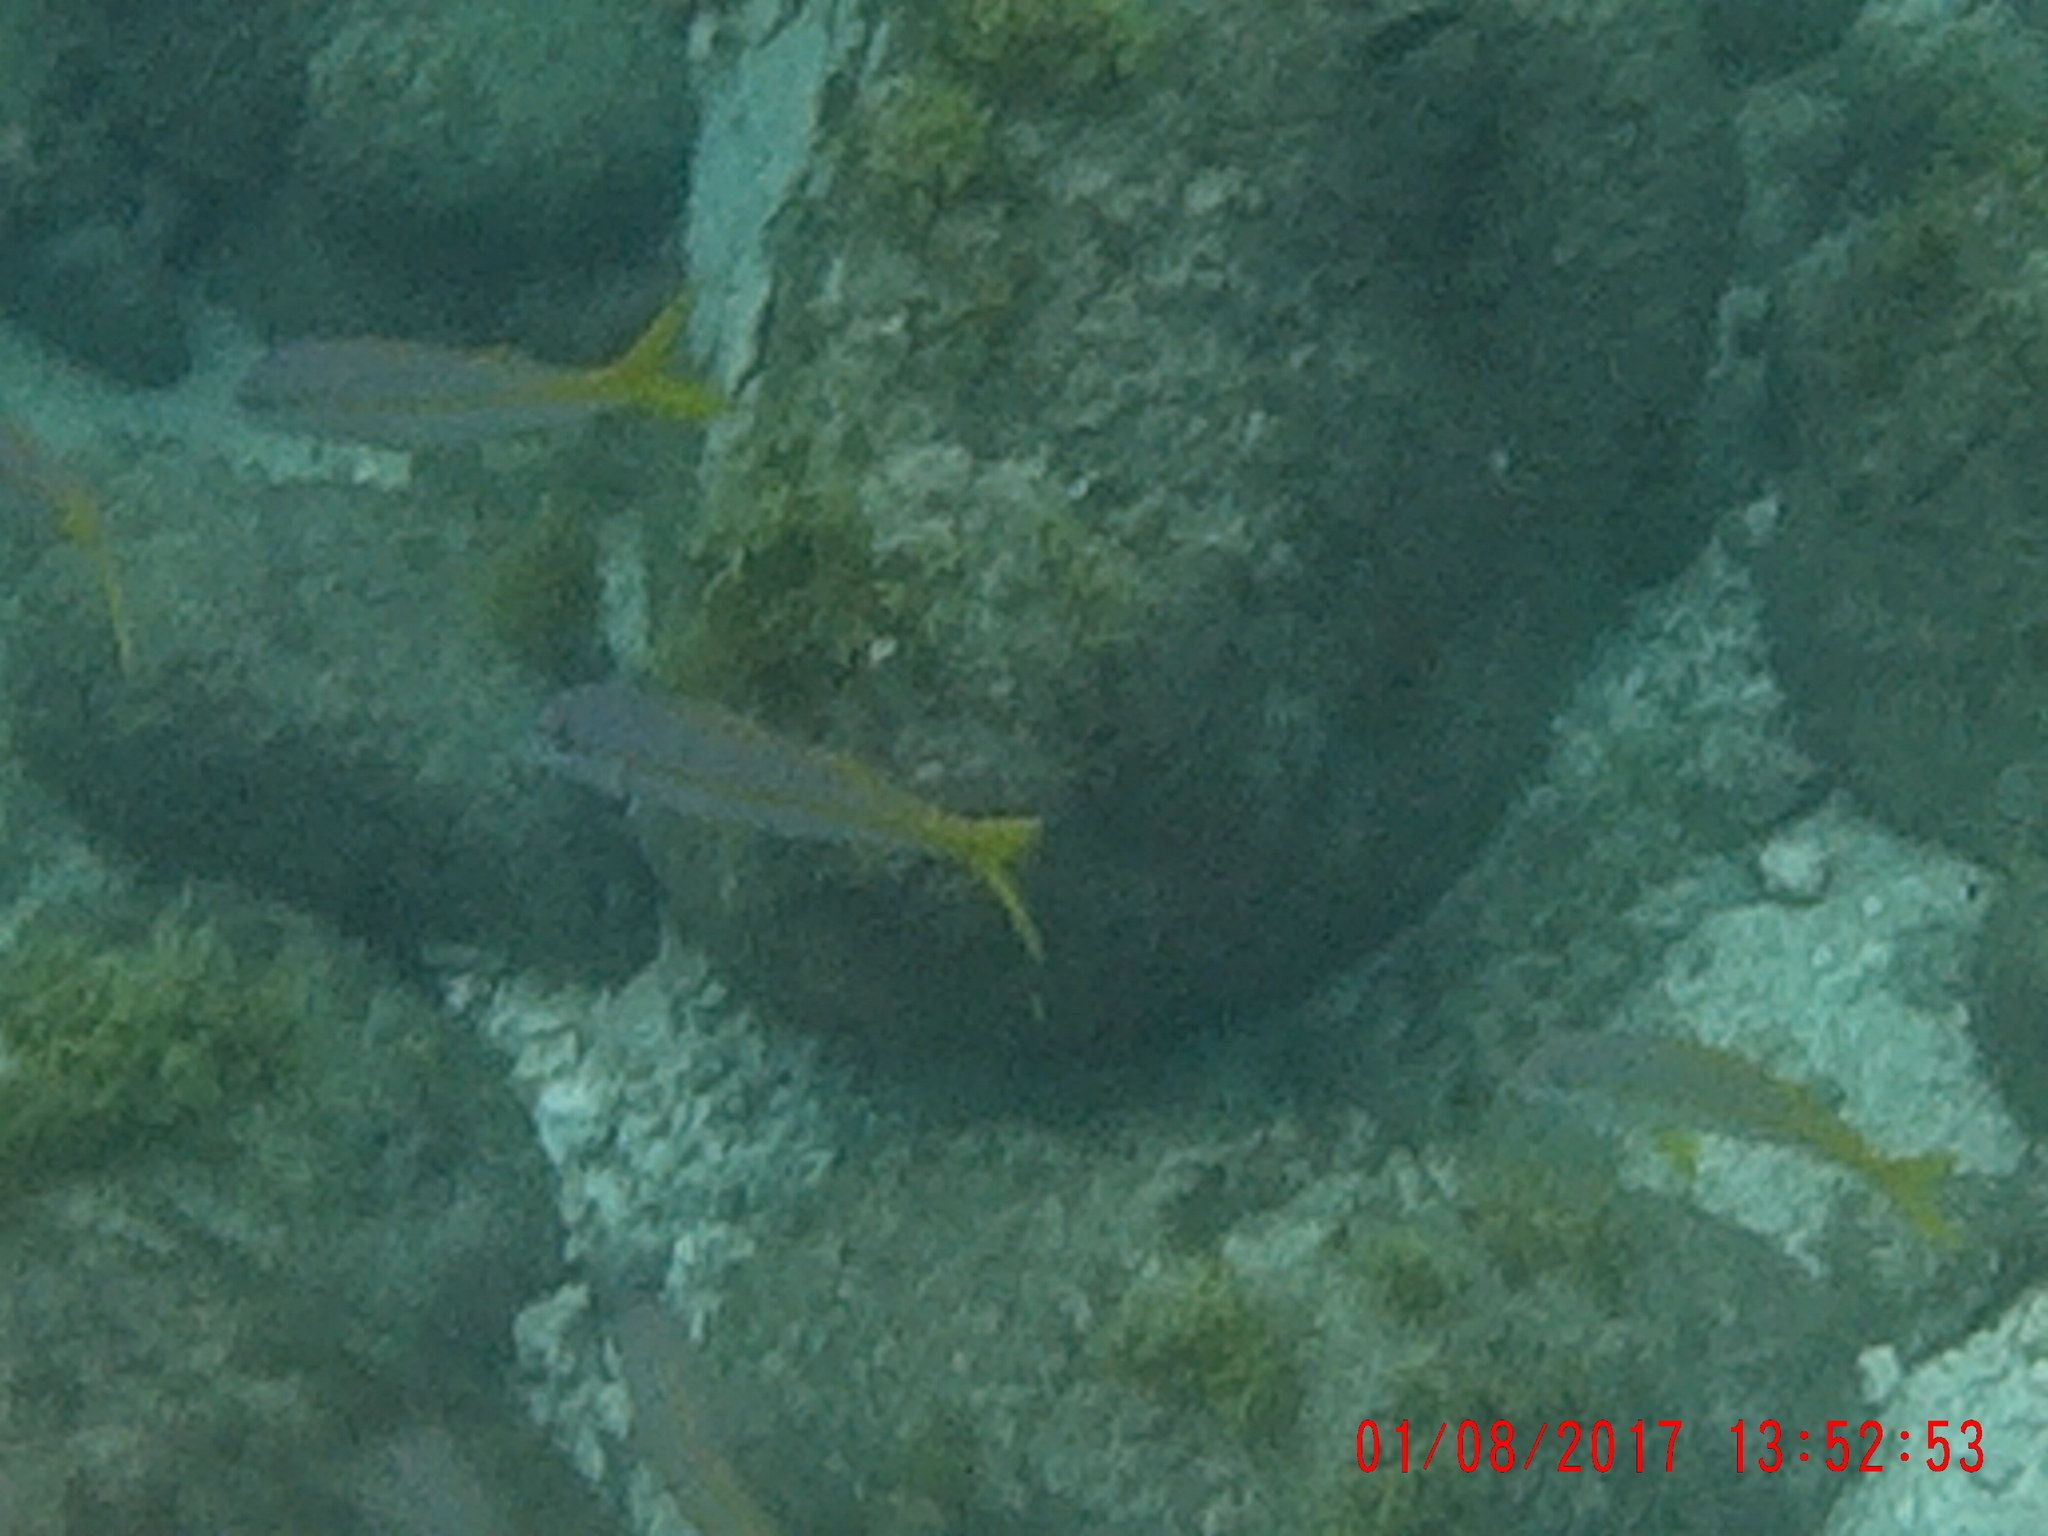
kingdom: Animalia
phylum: Chordata
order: Perciformes
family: Mullidae
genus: Mulloidichthys
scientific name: Mulloidichthys martinicus
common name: Yellow goatfish
